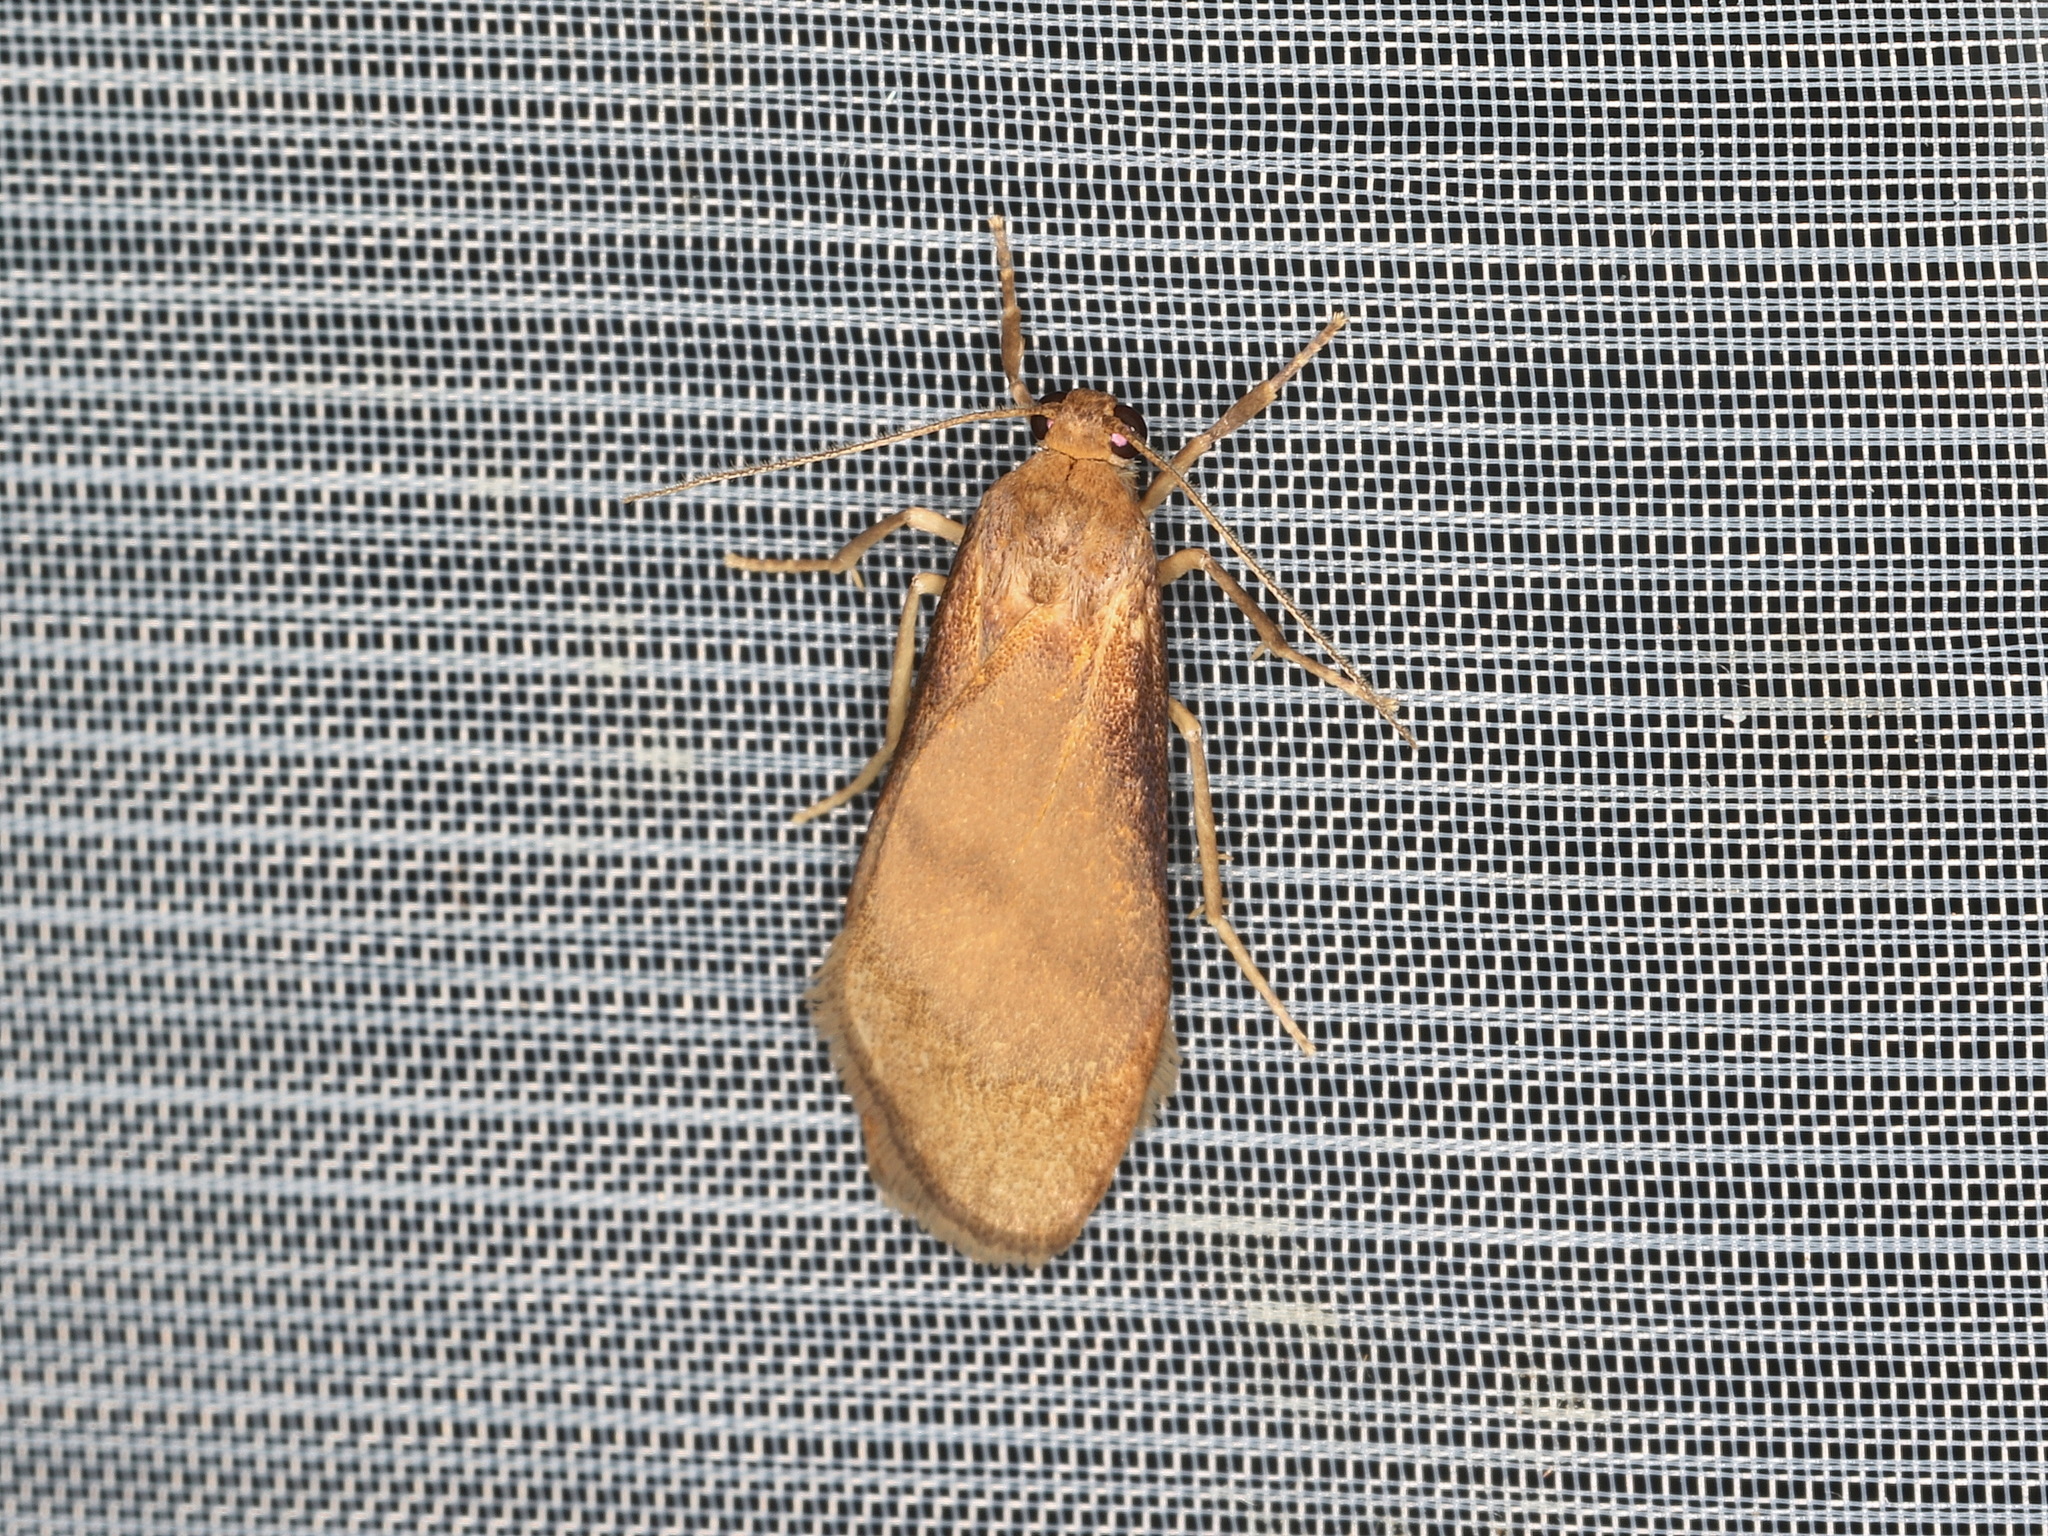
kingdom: Animalia
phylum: Arthropoda
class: Insecta
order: Lepidoptera
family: Erebidae
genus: Lambula
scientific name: Lambula obliquilinea
